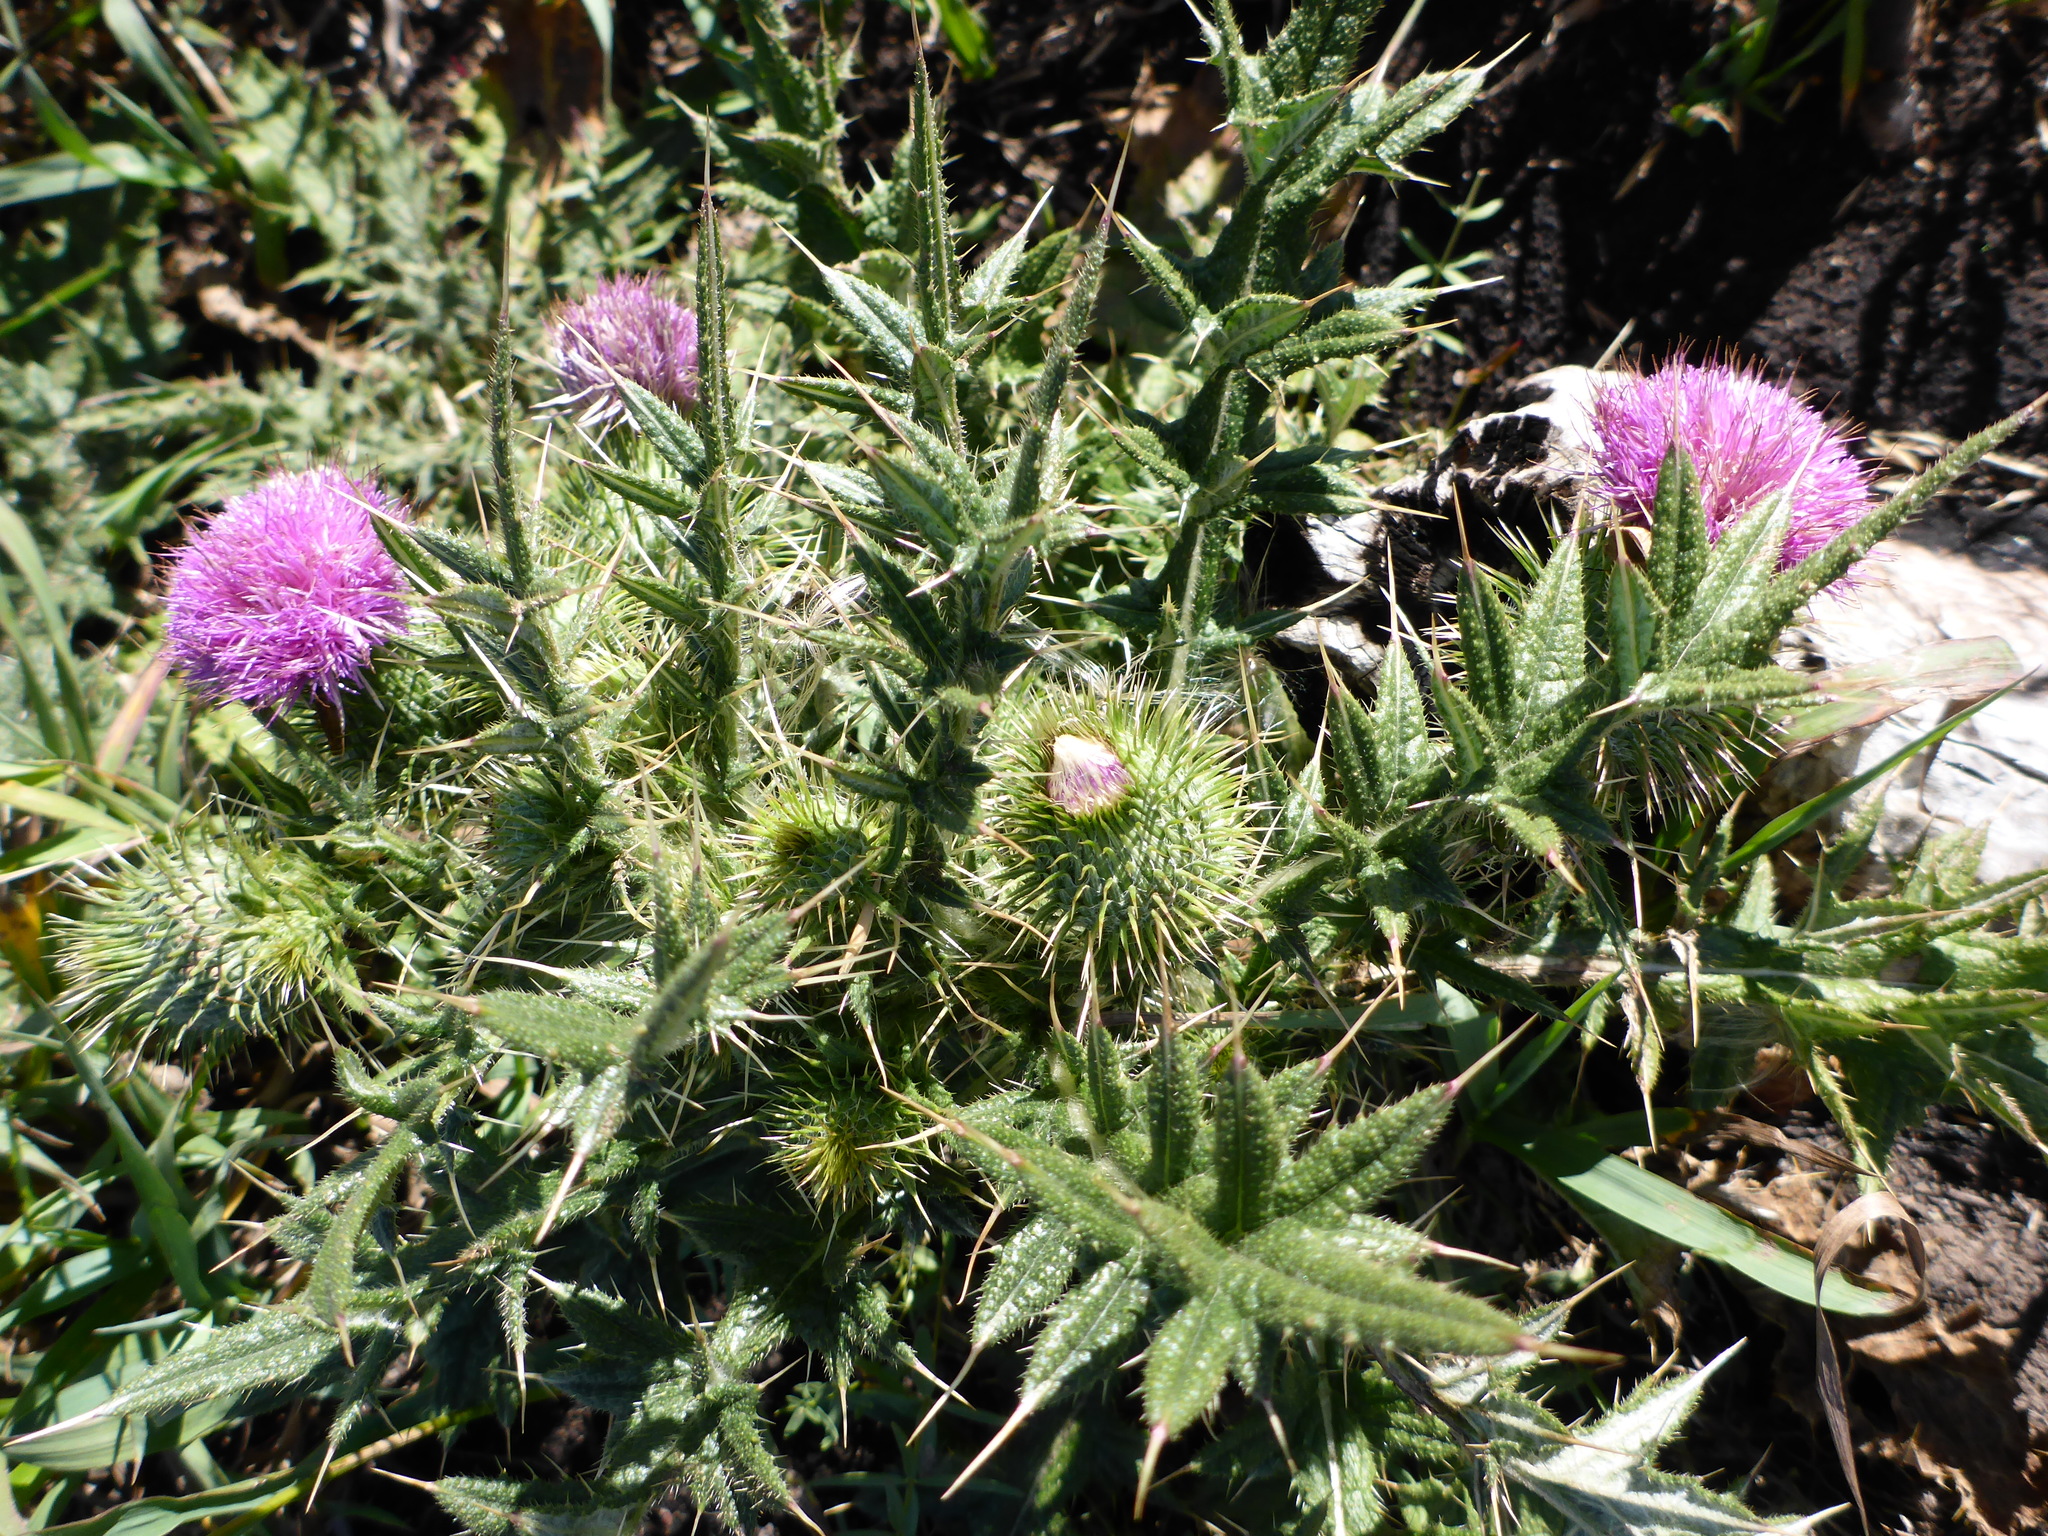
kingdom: Plantae
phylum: Tracheophyta
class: Magnoliopsida
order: Asterales
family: Asteraceae
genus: Cirsium
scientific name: Cirsium vulgare
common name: Bull thistle
